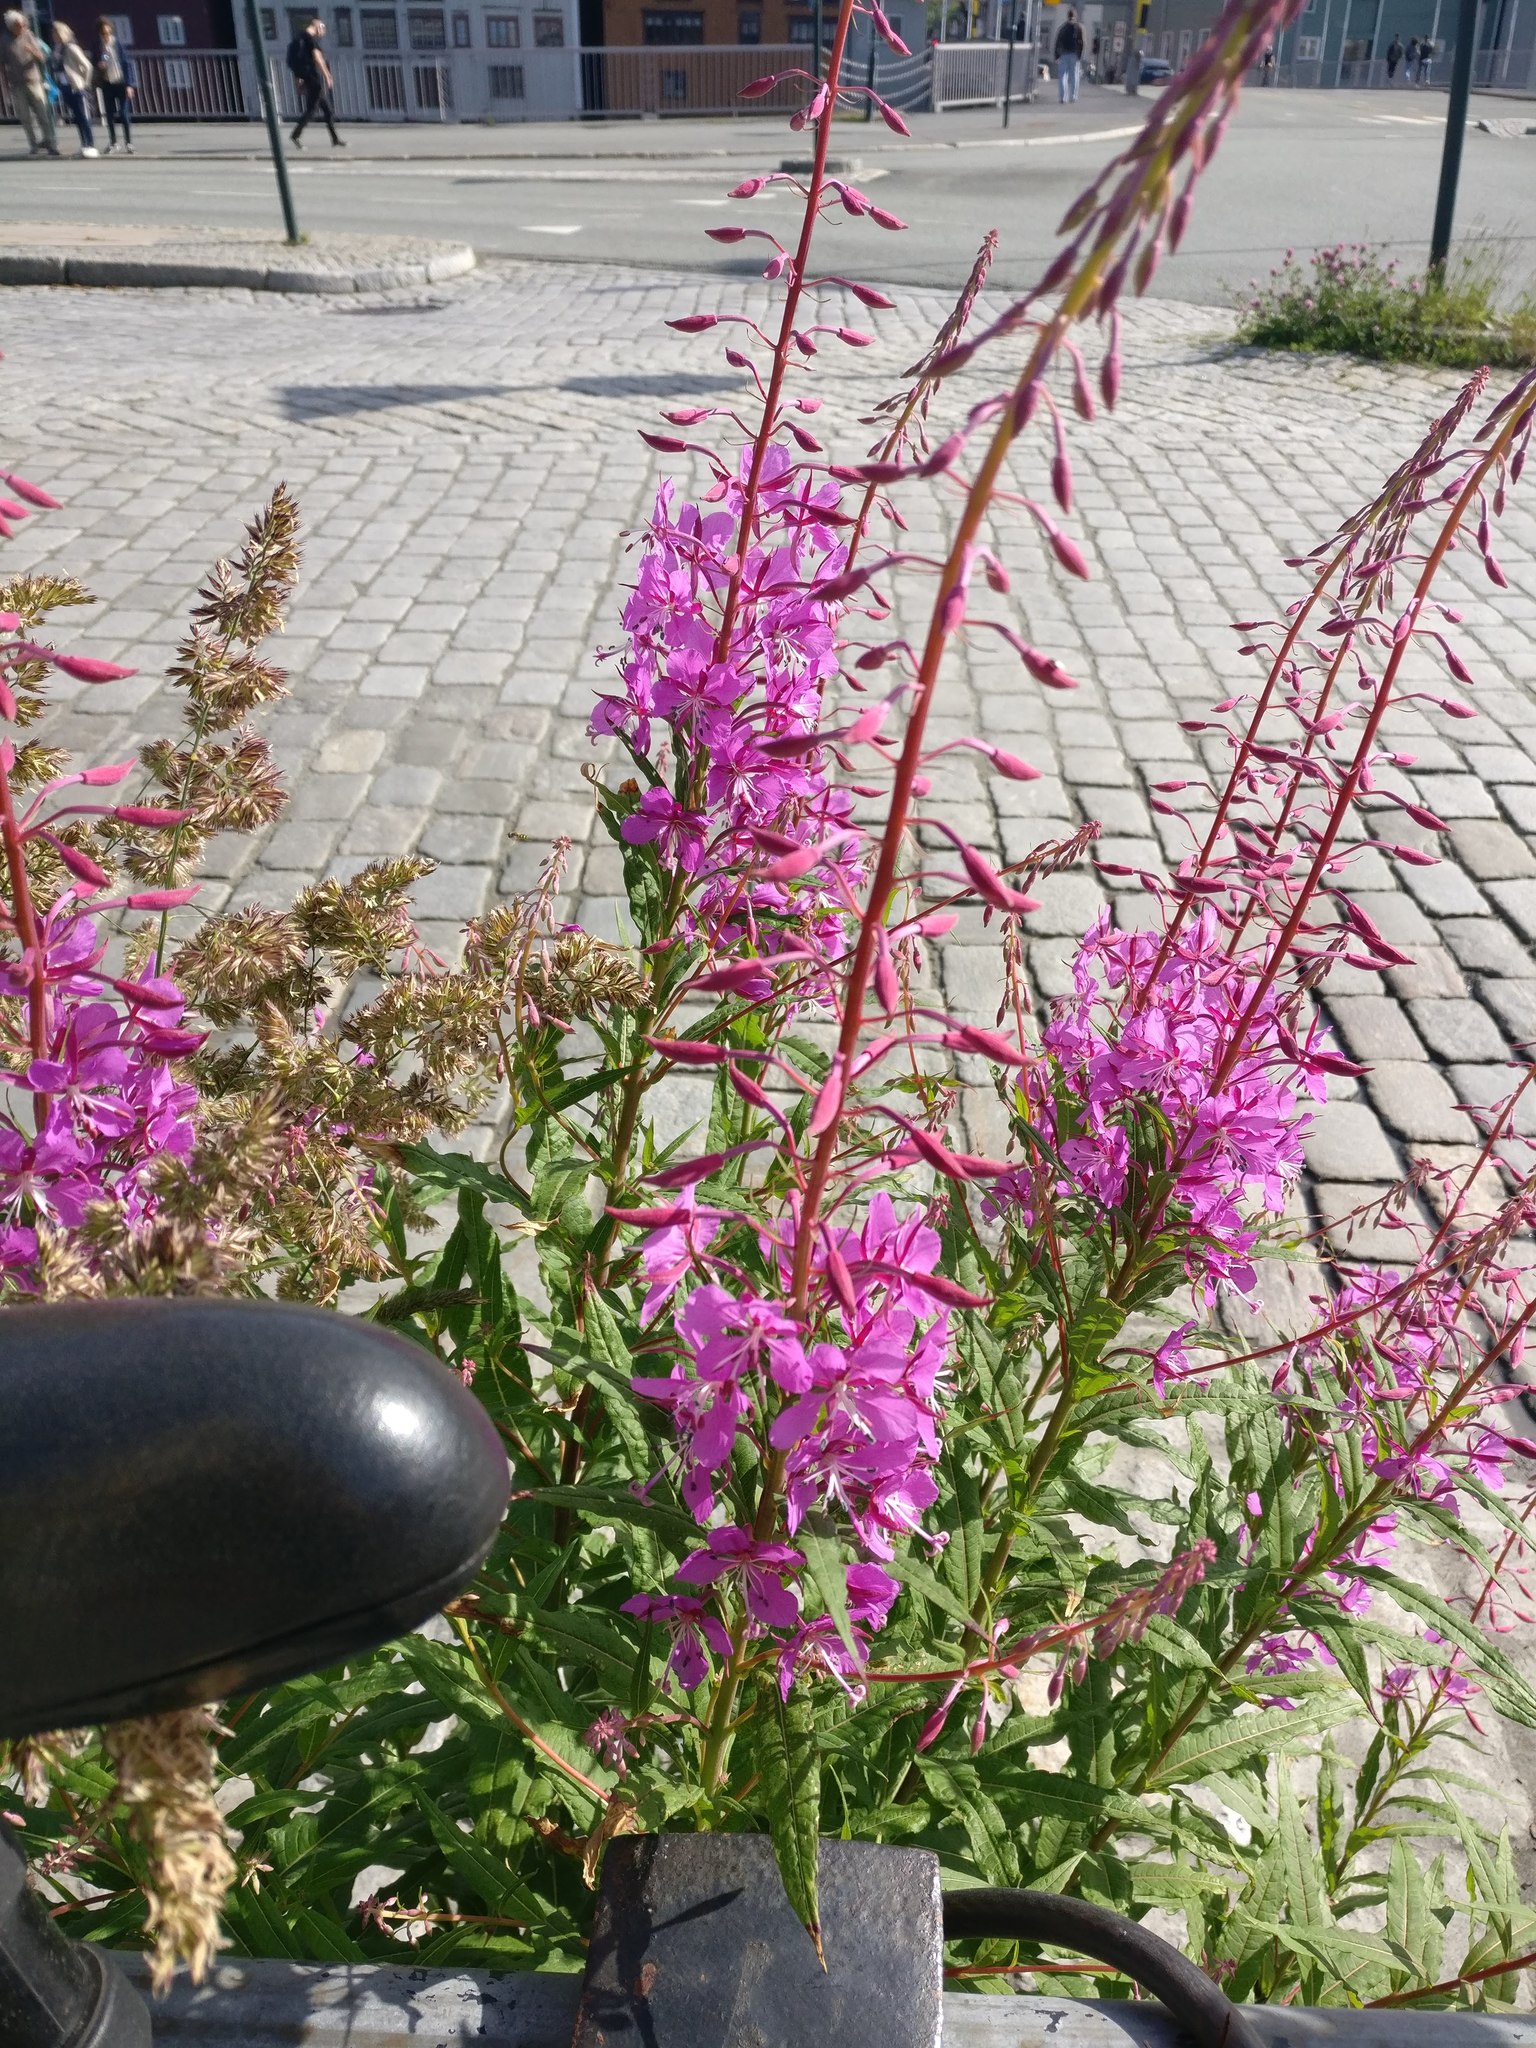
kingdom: Plantae
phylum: Tracheophyta
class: Magnoliopsida
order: Myrtales
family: Onagraceae
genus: Chamaenerion
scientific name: Chamaenerion angustifolium
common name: Fireweed
